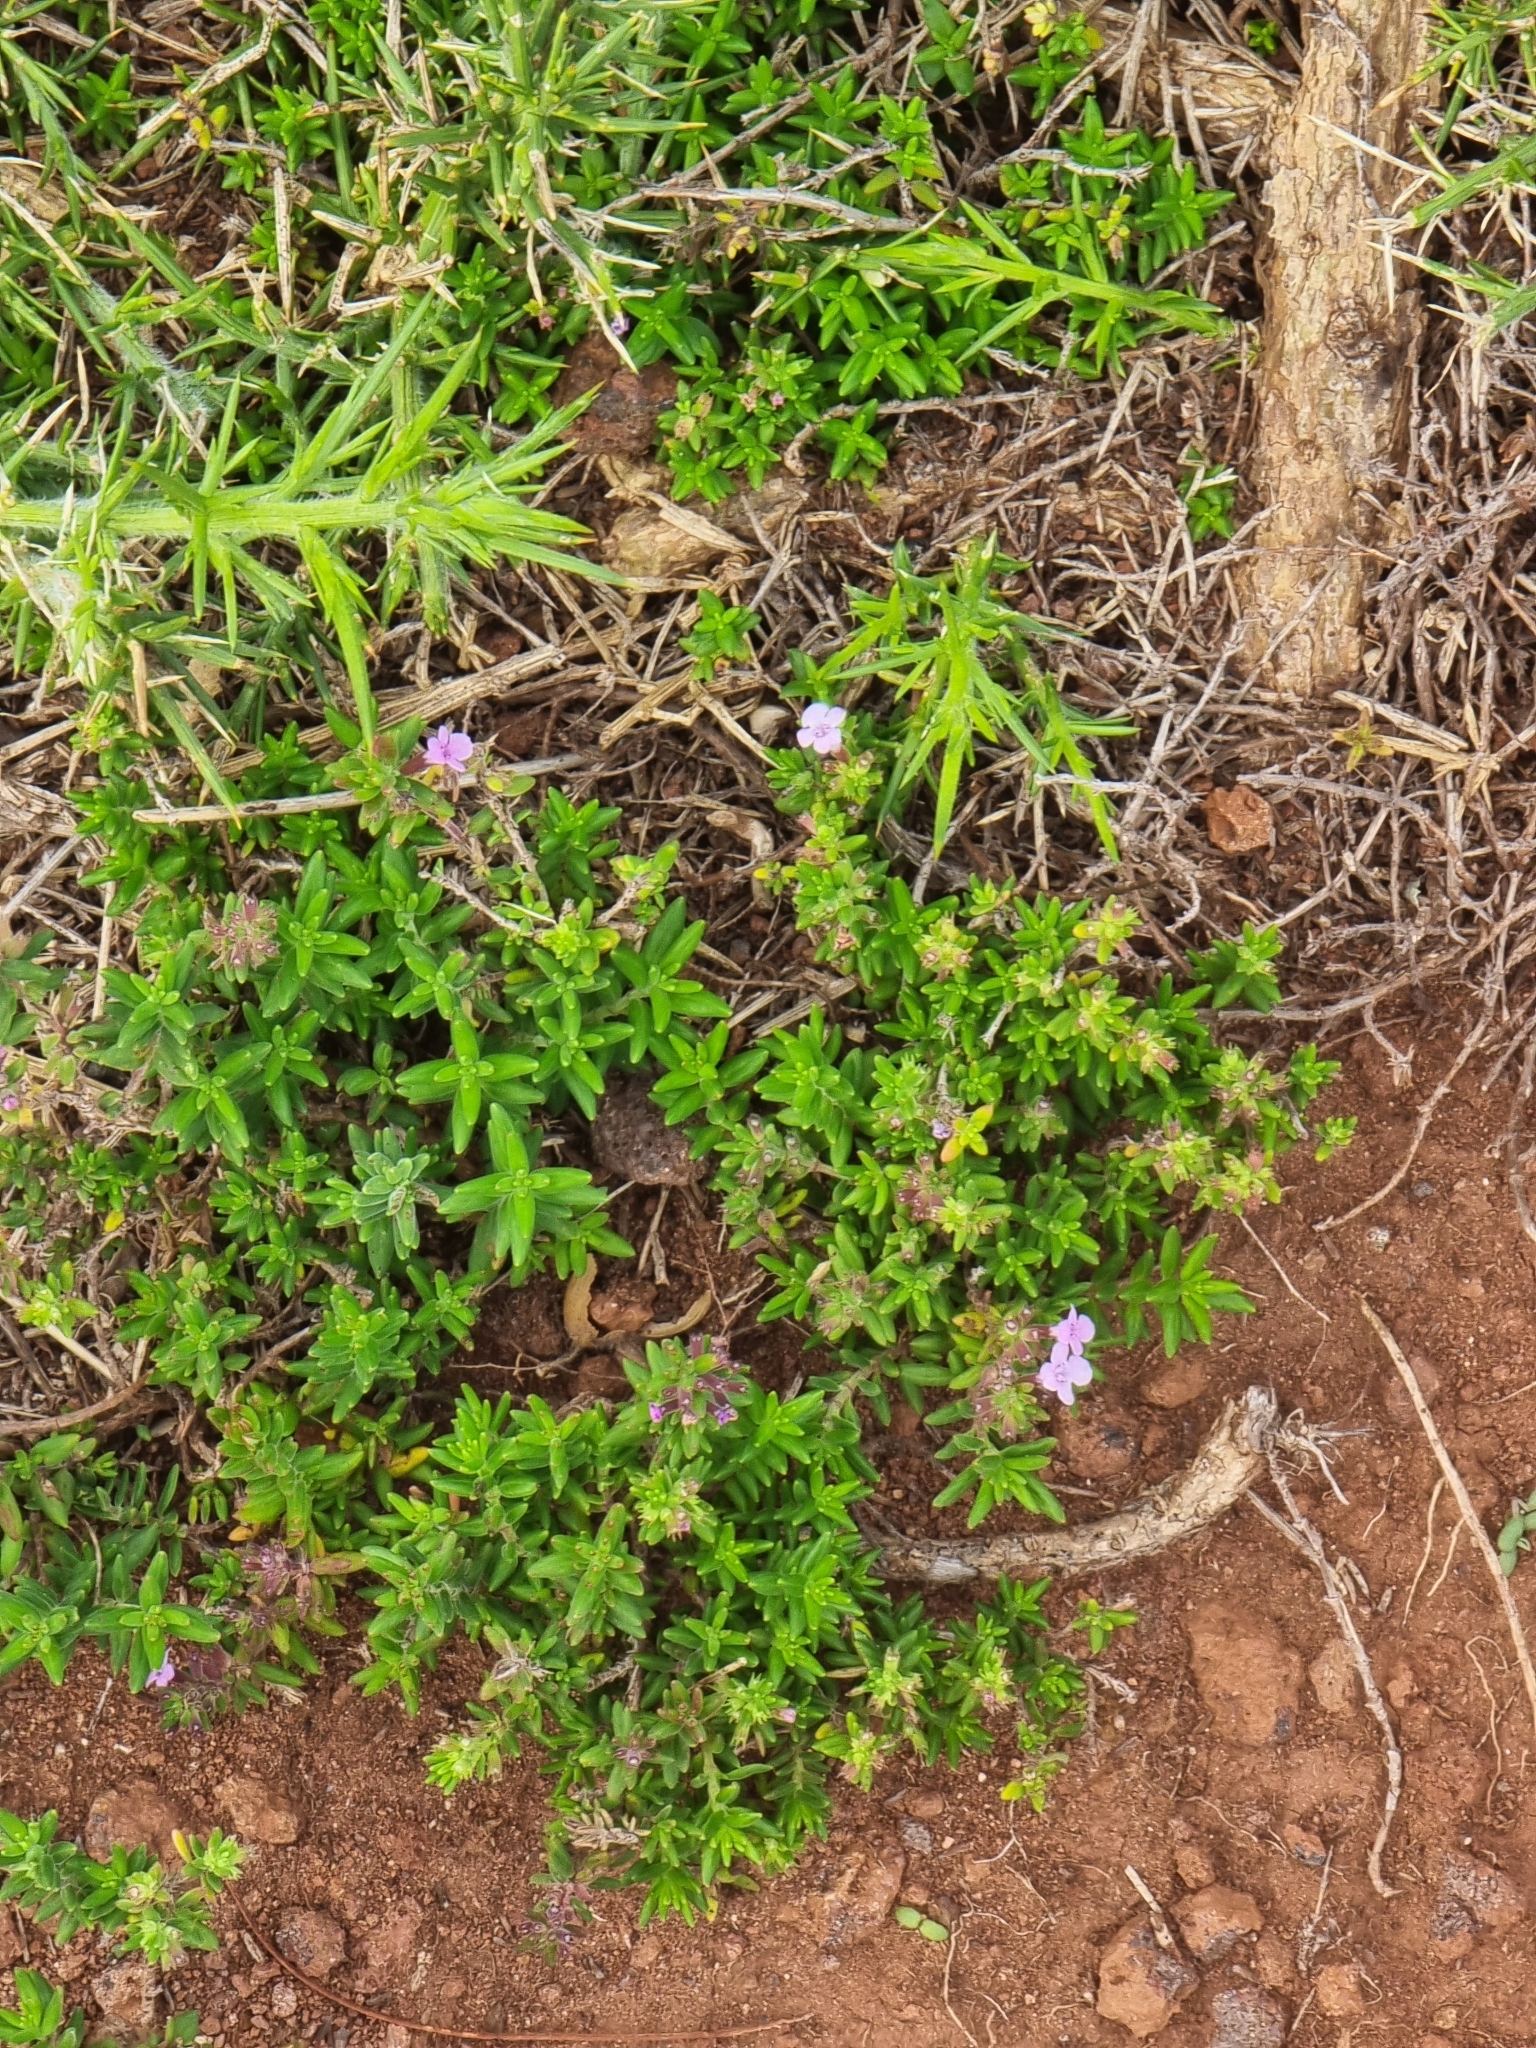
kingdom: Plantae
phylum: Tracheophyta
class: Magnoliopsida
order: Lamiales
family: Lamiaceae
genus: Micromeria
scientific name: Micromeria maderensis
